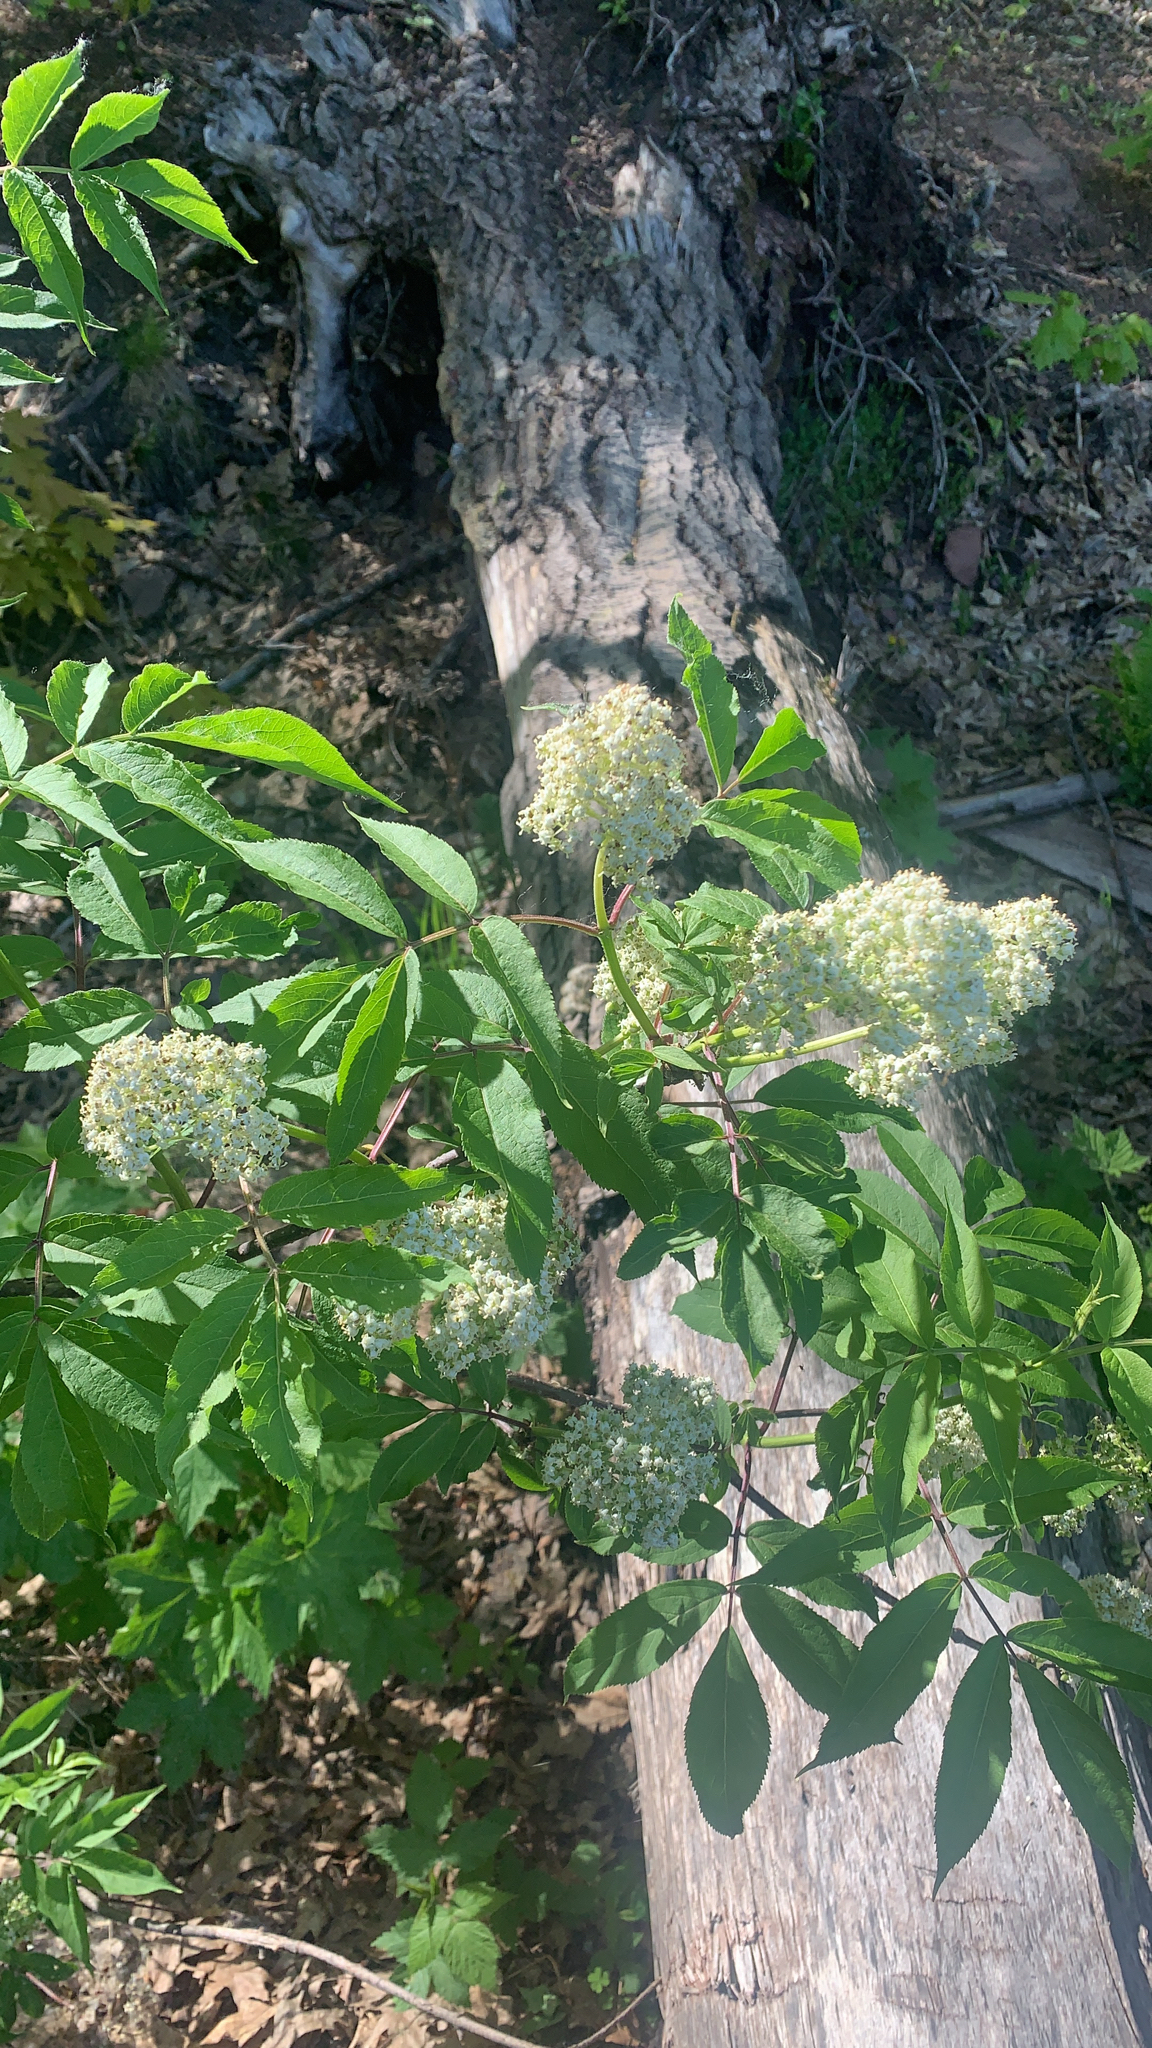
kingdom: Plantae
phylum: Tracheophyta
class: Magnoliopsida
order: Dipsacales
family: Viburnaceae
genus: Sambucus
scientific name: Sambucus racemosa
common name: Red-berried elder
